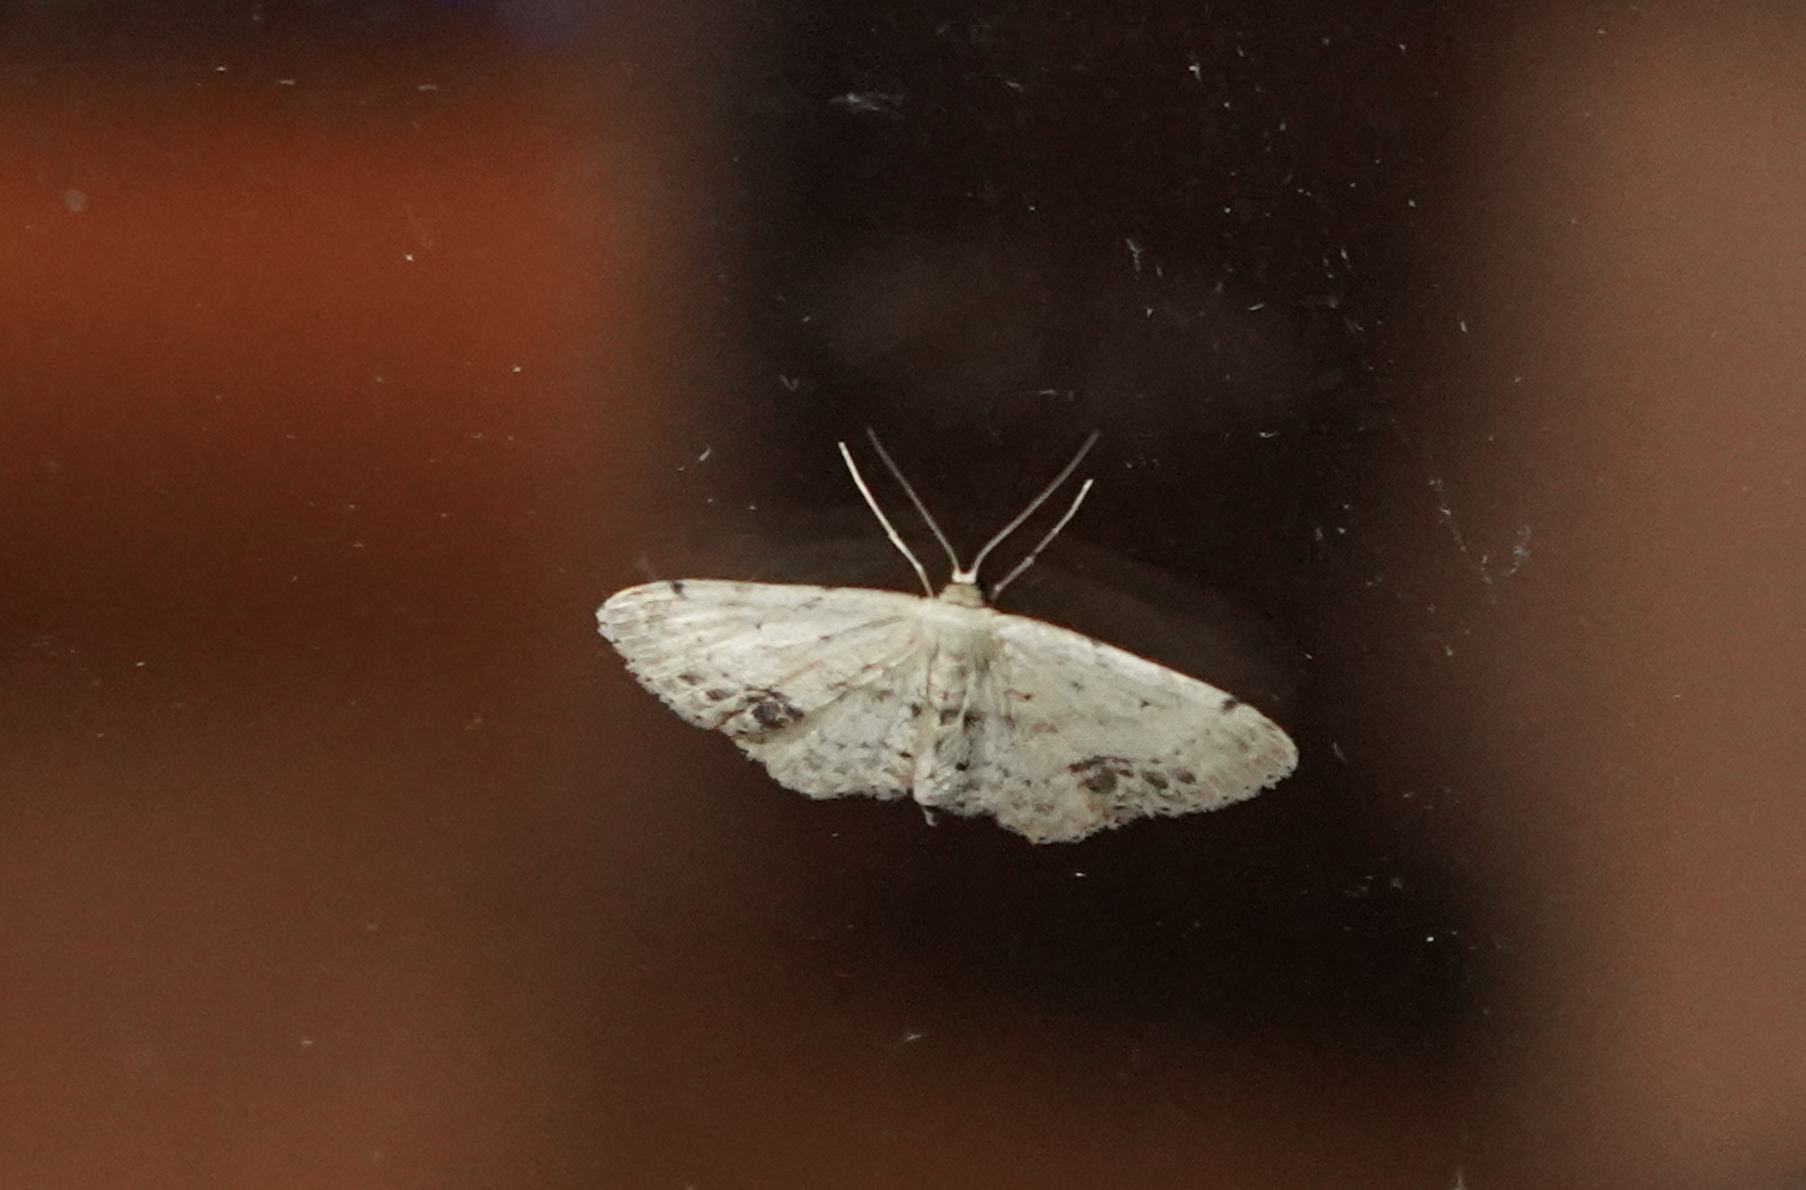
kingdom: Animalia
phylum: Arthropoda
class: Insecta
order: Lepidoptera
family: Geometridae
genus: Idaea
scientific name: Idaea dimidiata
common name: Single-dotted wave
